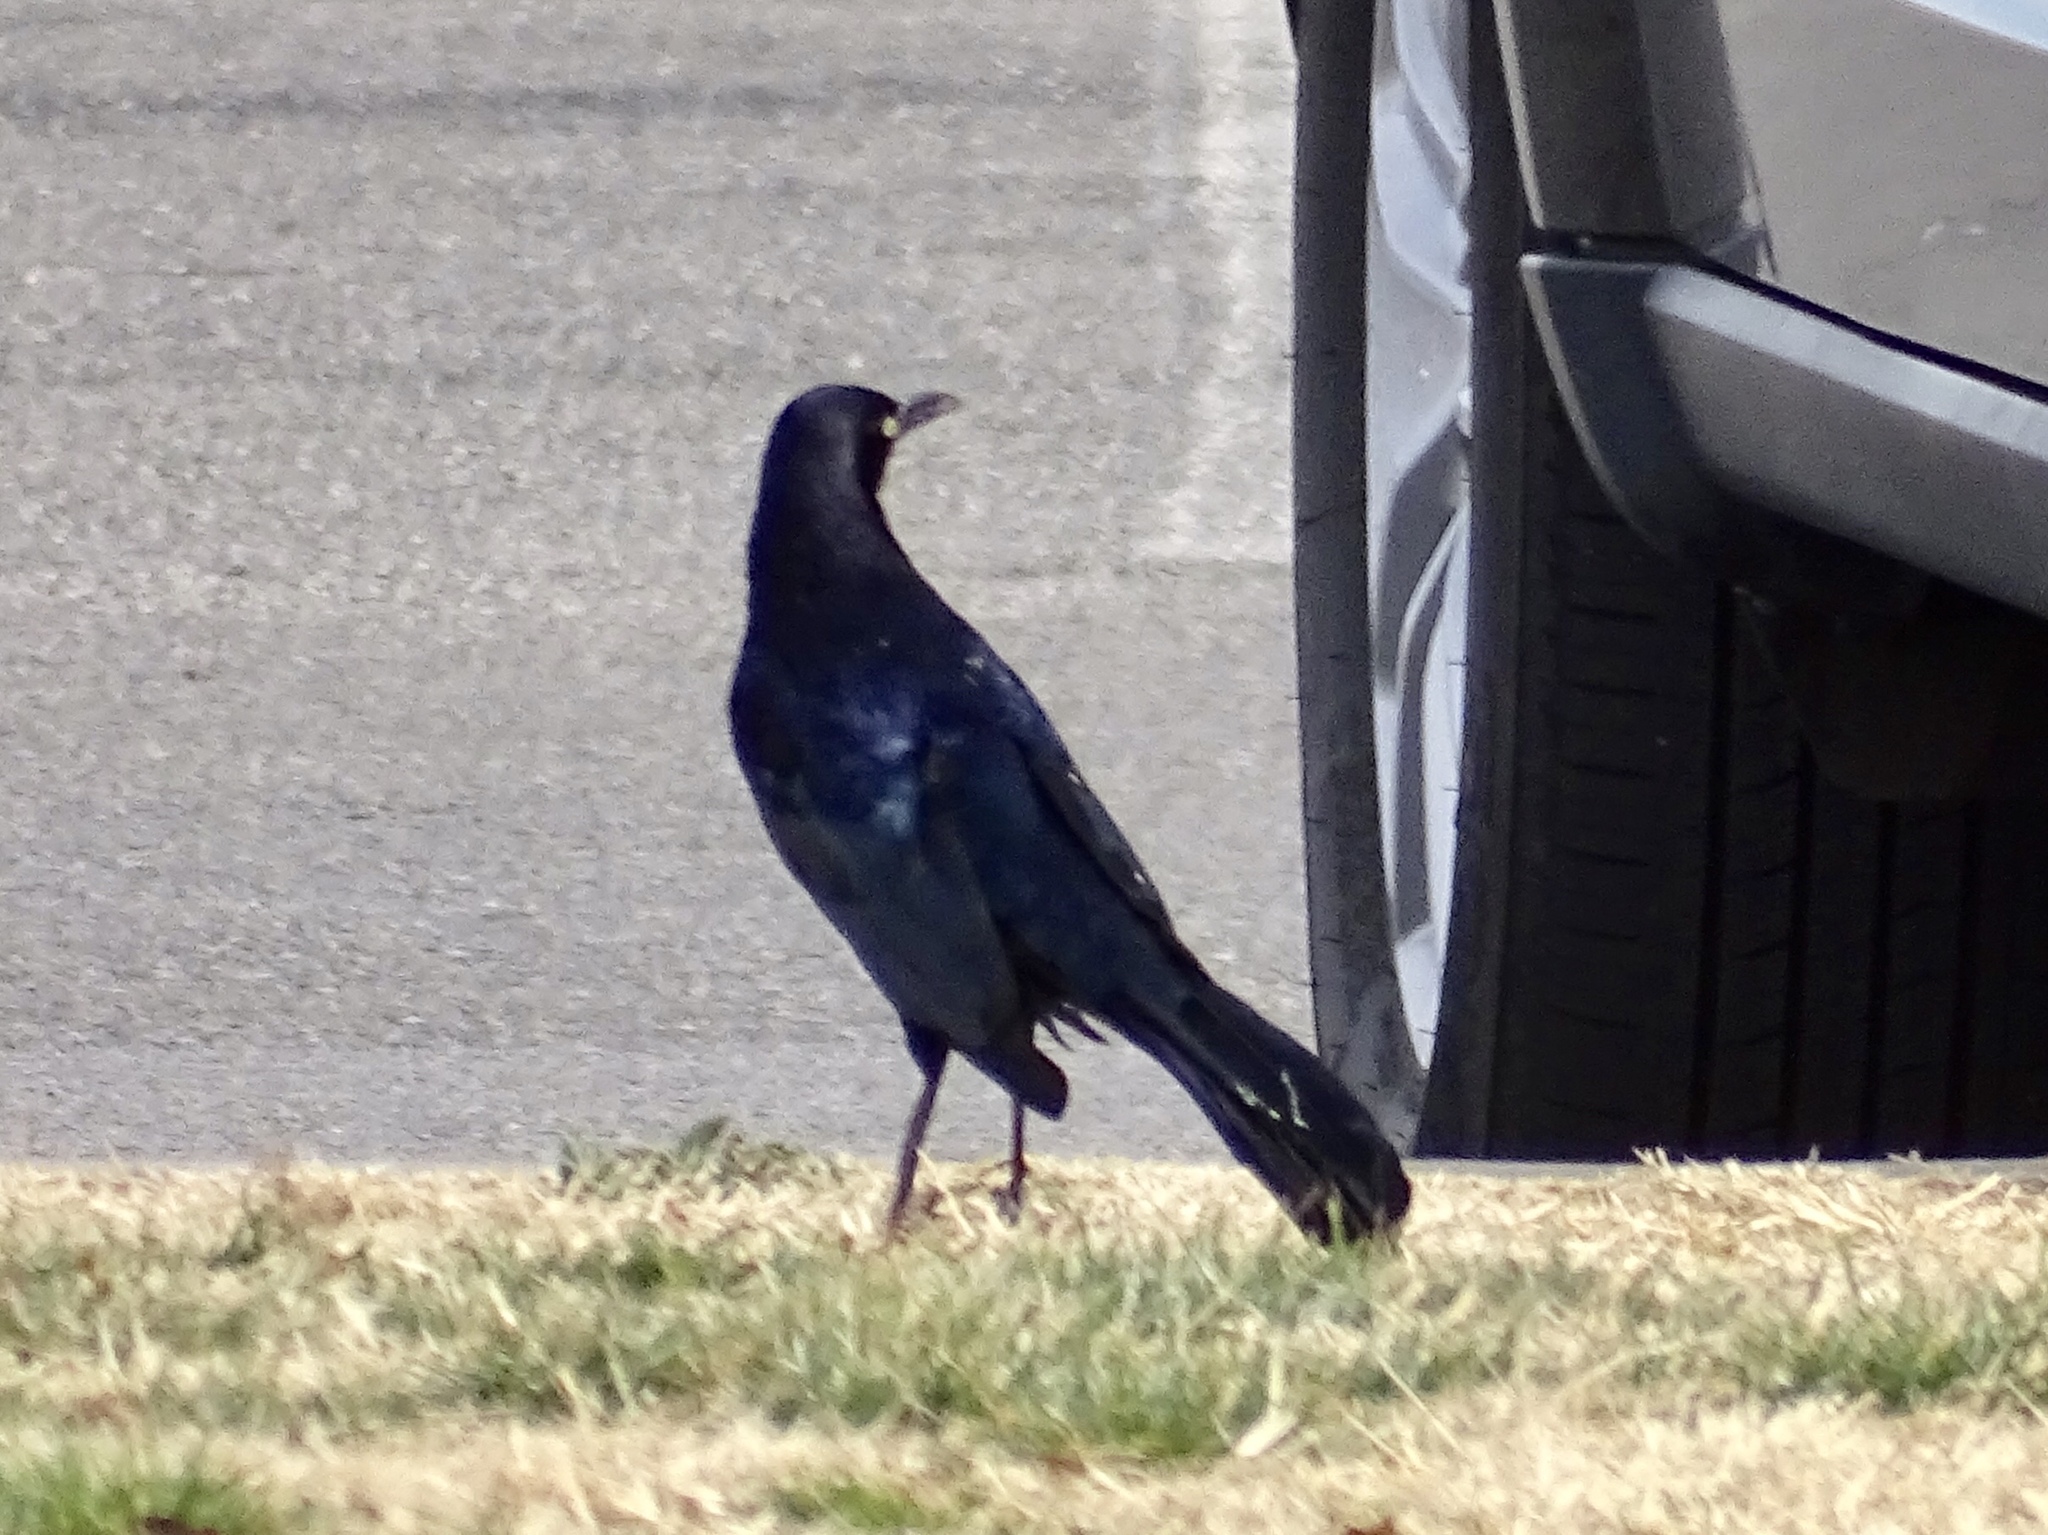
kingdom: Animalia
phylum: Chordata
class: Aves
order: Passeriformes
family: Icteridae
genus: Quiscalus
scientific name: Quiscalus mexicanus
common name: Great-tailed grackle
